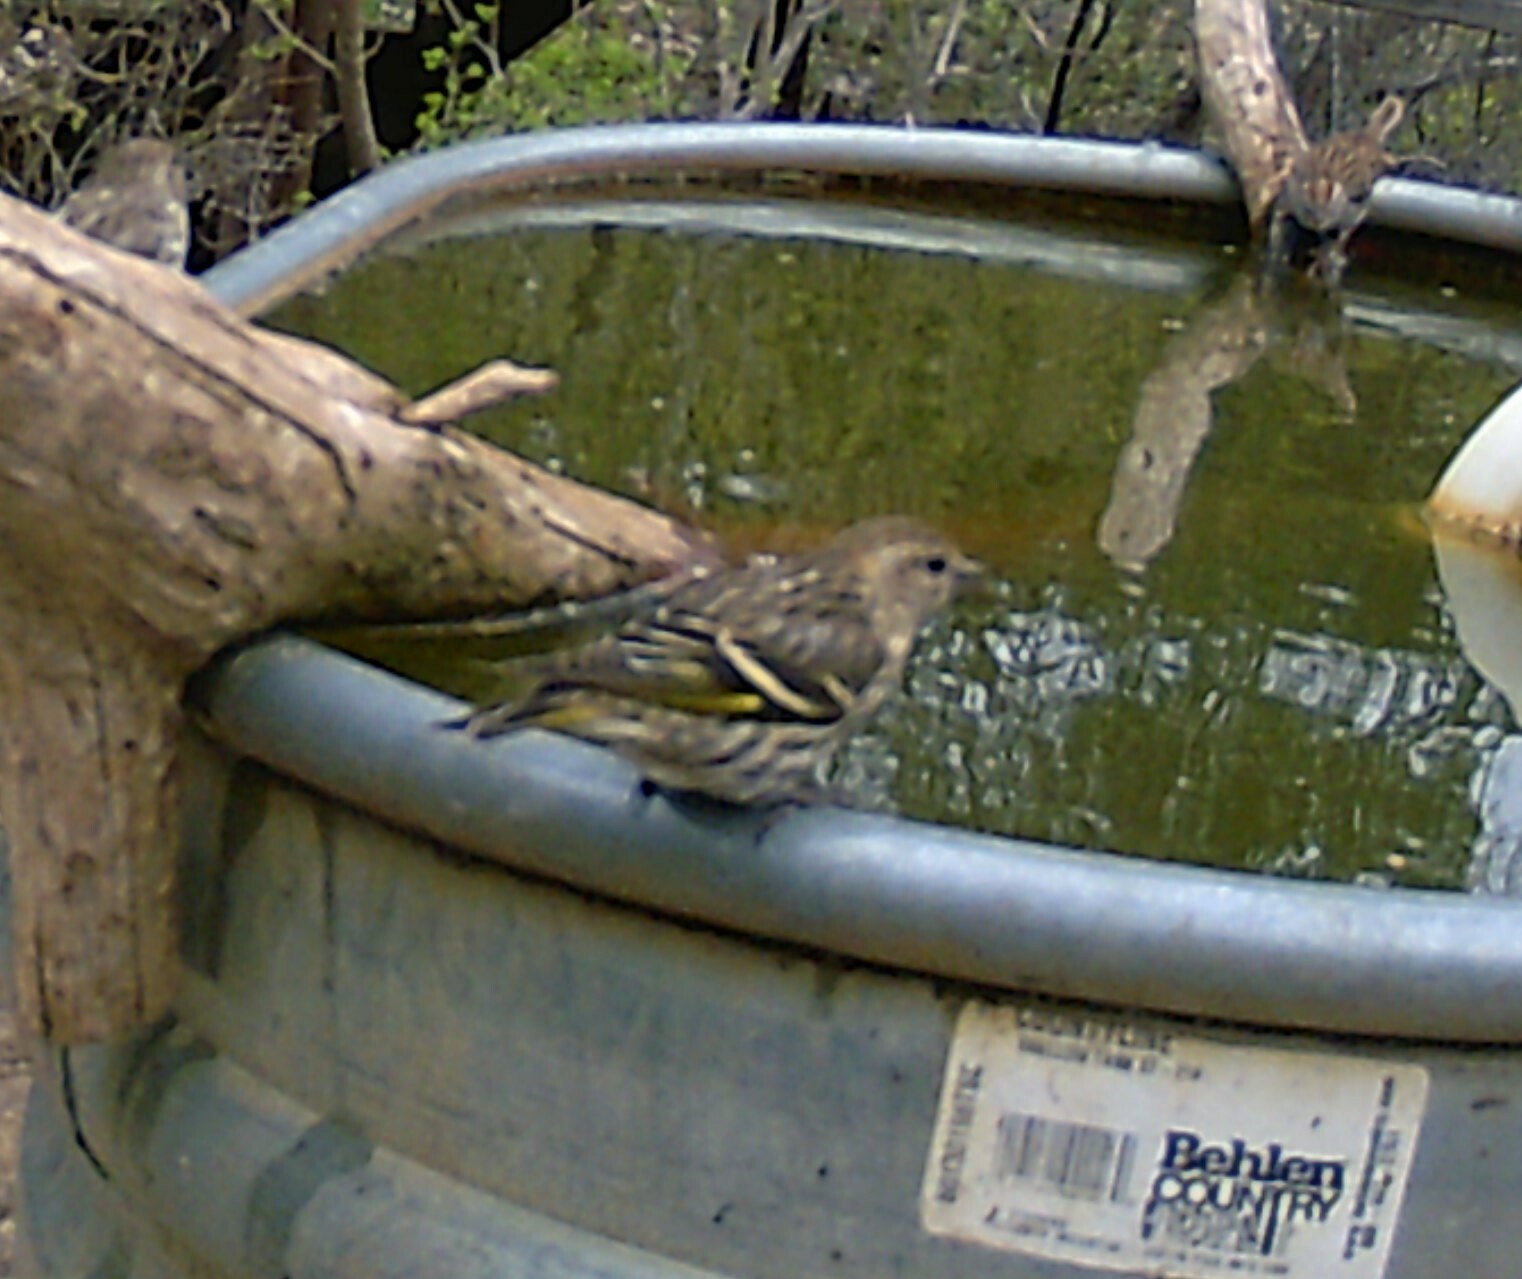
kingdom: Animalia
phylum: Chordata
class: Aves
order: Passeriformes
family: Fringillidae
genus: Spinus
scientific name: Spinus pinus
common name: Pine siskin
